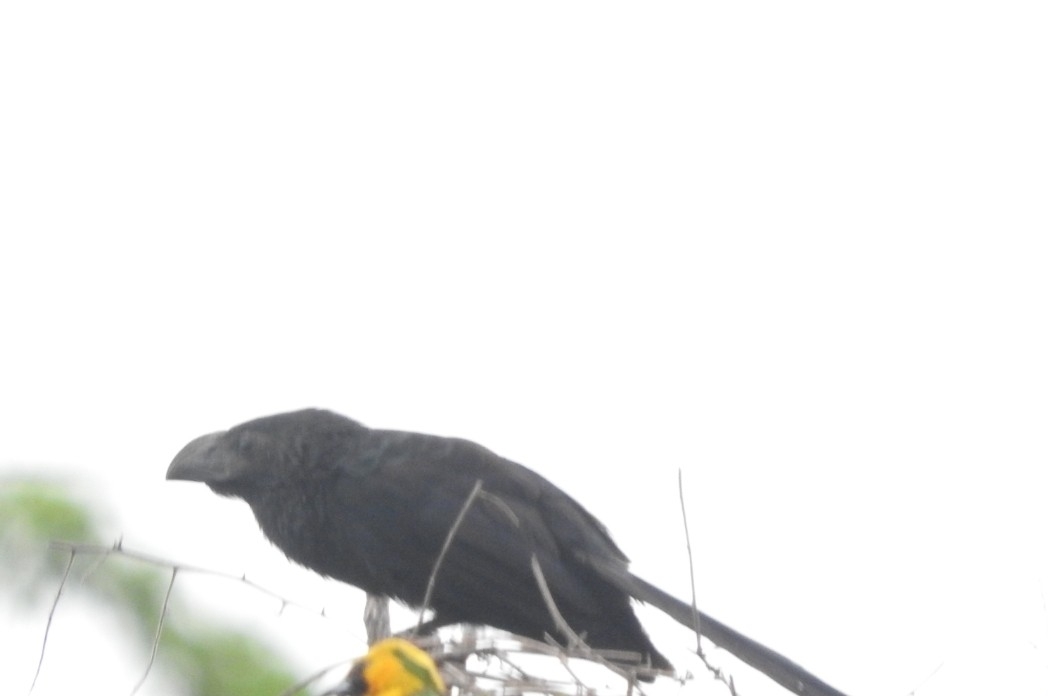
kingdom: Animalia
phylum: Chordata
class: Aves
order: Cuculiformes
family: Cuculidae
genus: Crotophaga
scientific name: Crotophaga sulcirostris
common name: Groove-billed ani
